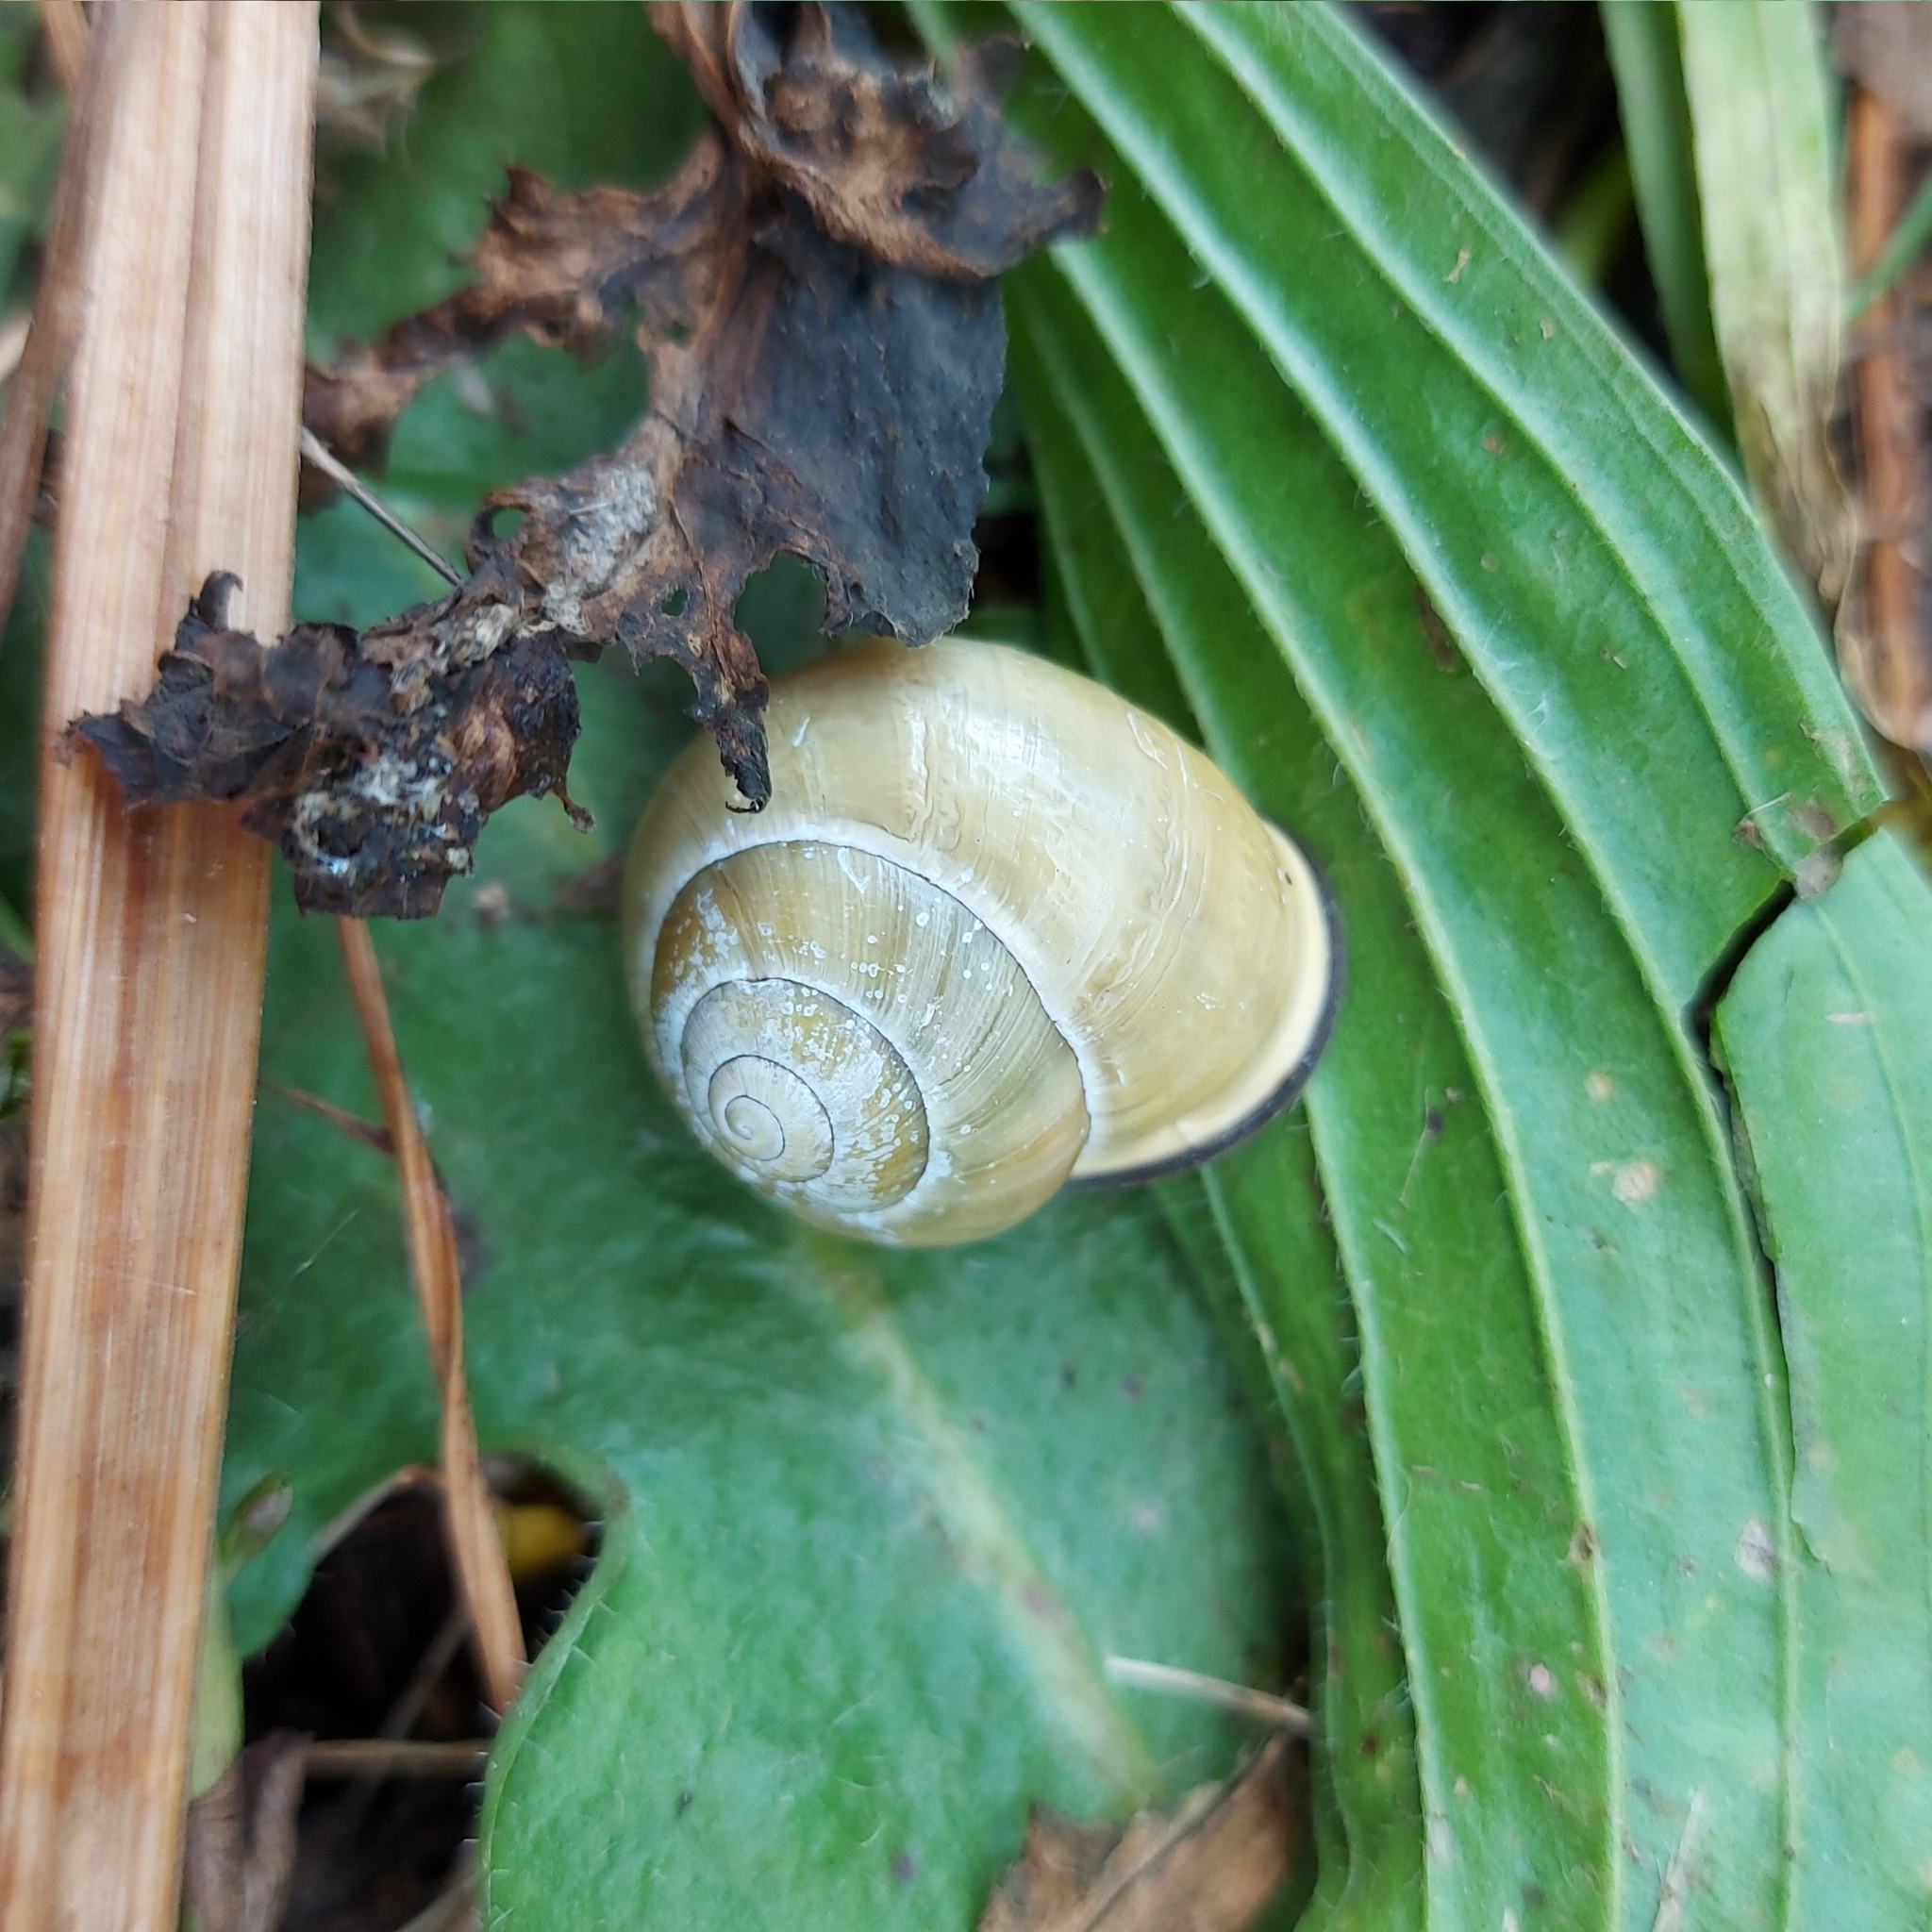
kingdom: Animalia
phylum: Mollusca
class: Gastropoda
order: Stylommatophora
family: Helicidae
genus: Cepaea
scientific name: Cepaea nemoralis
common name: Grovesnail
